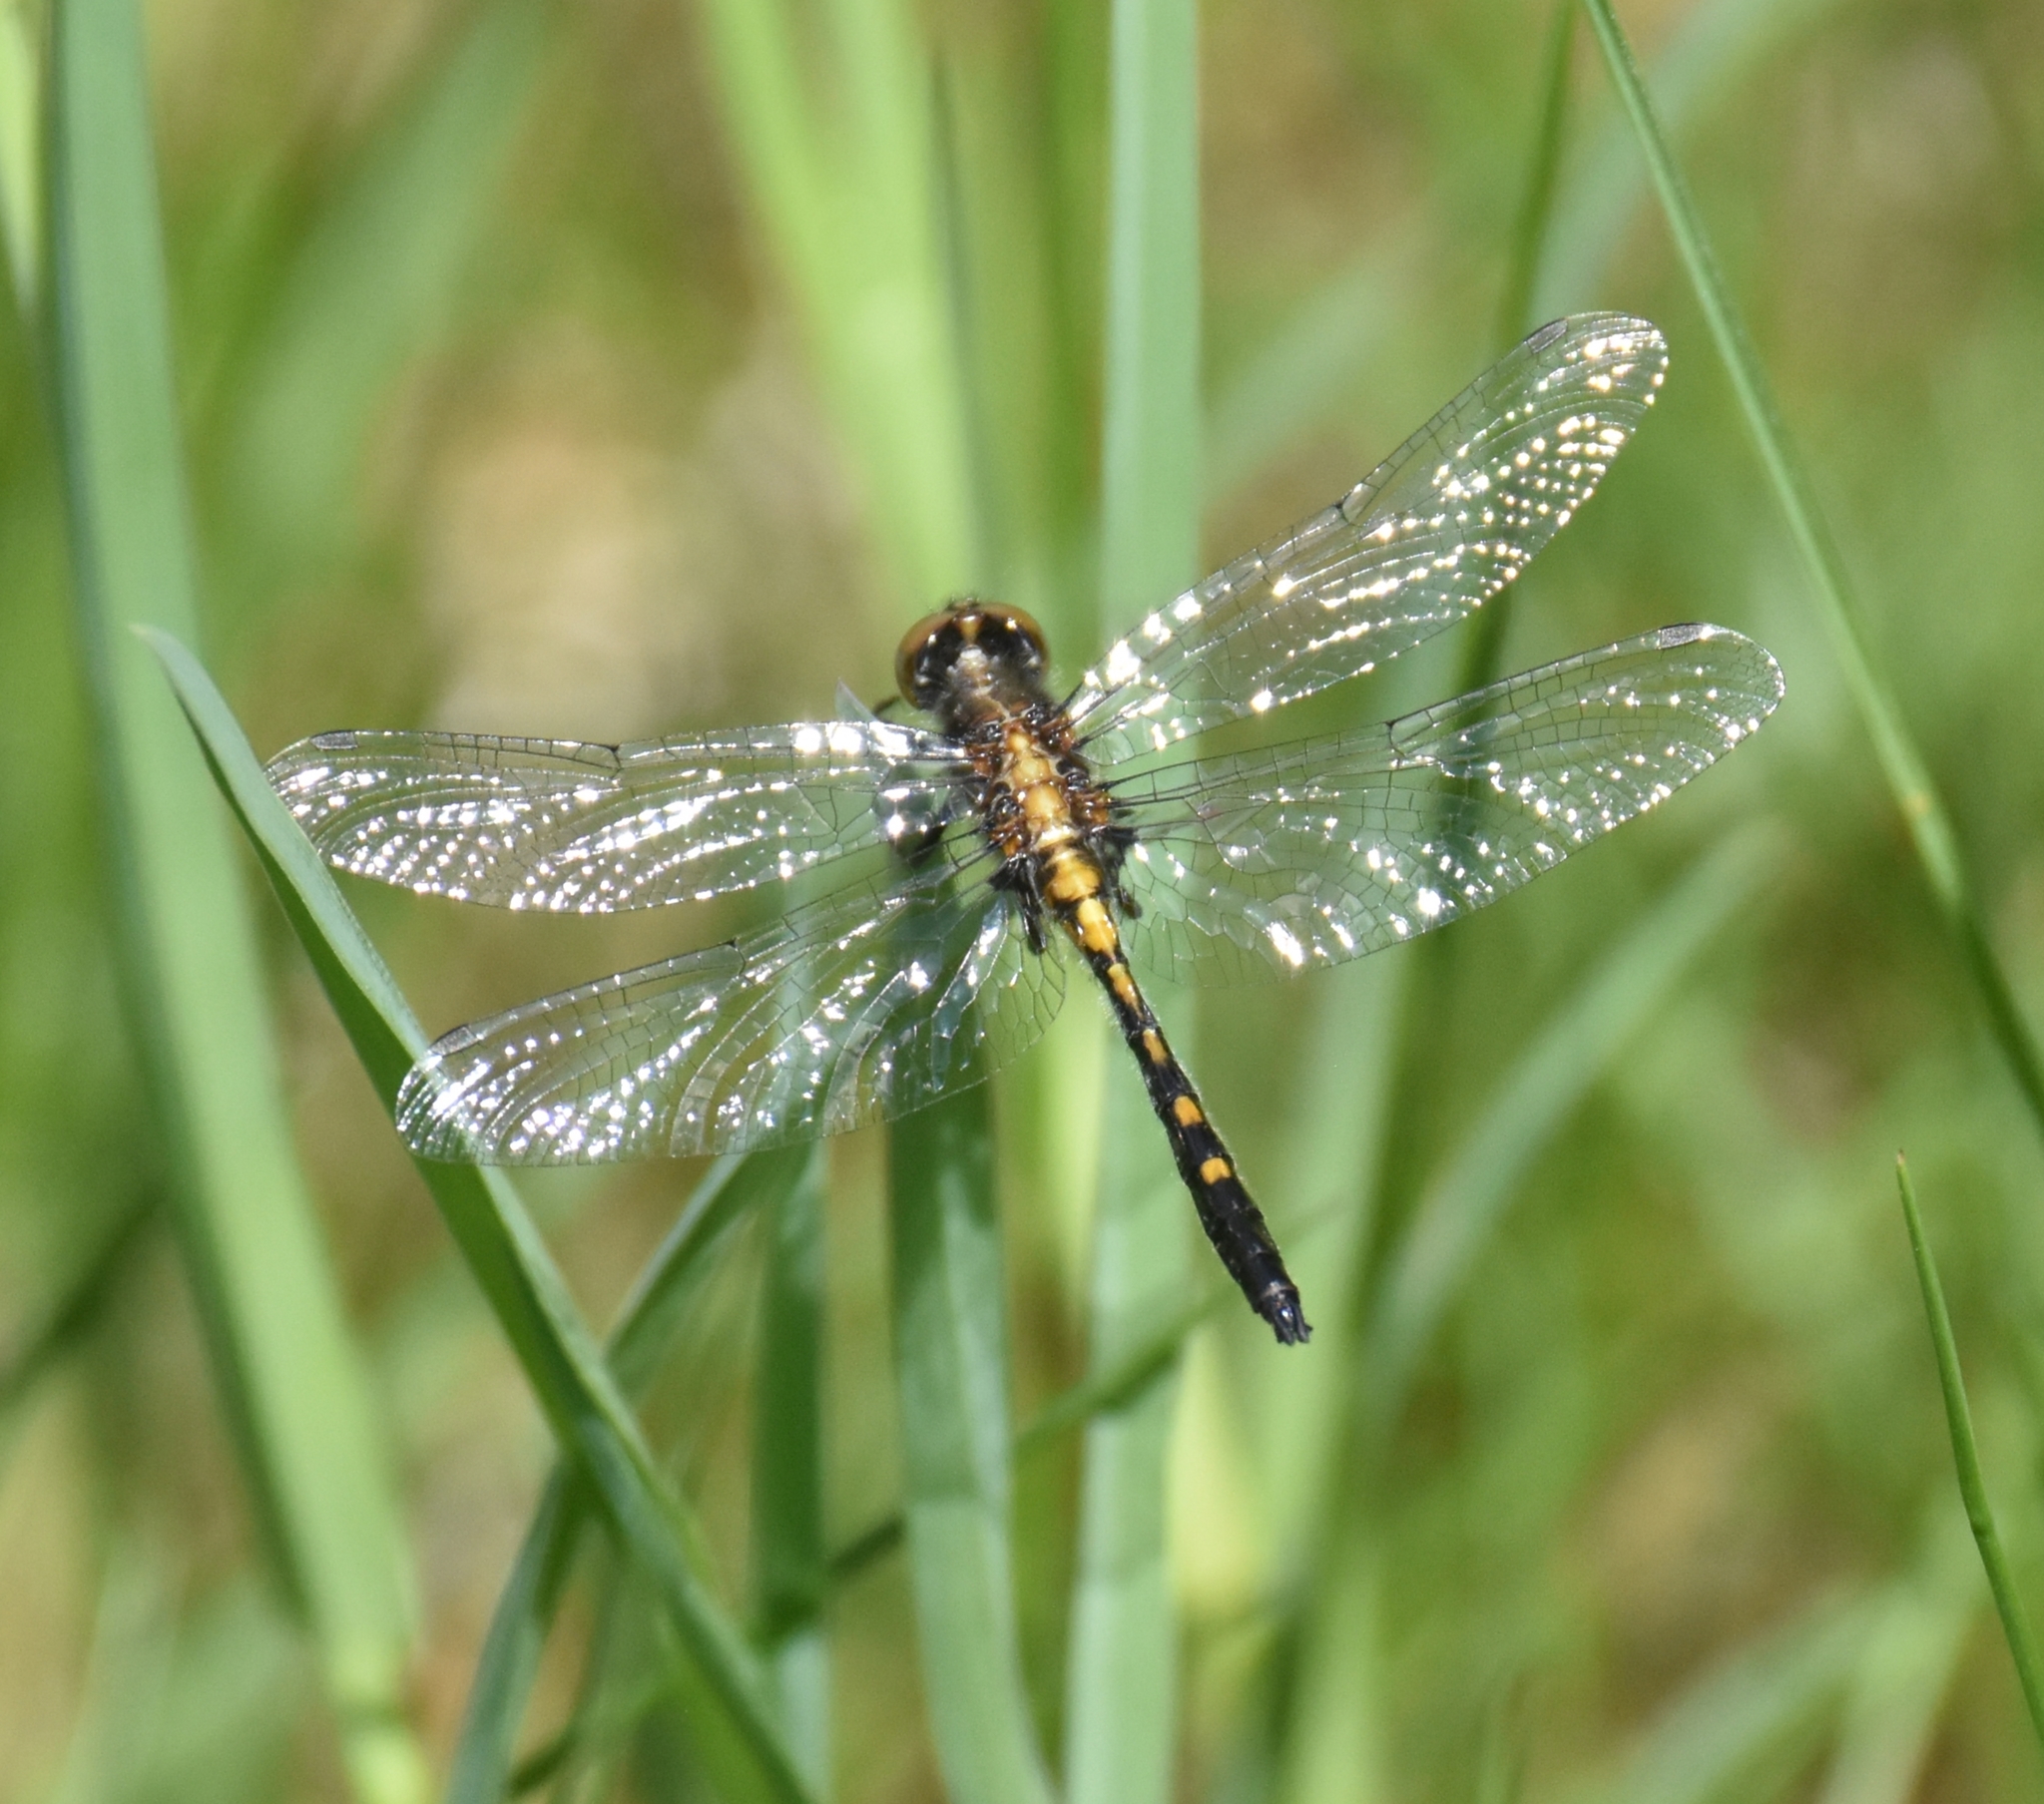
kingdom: Animalia
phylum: Arthropoda
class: Insecta
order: Odonata
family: Libellulidae
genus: Leucorrhinia
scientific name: Leucorrhinia intacta
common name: Dot-tailed whiteface
